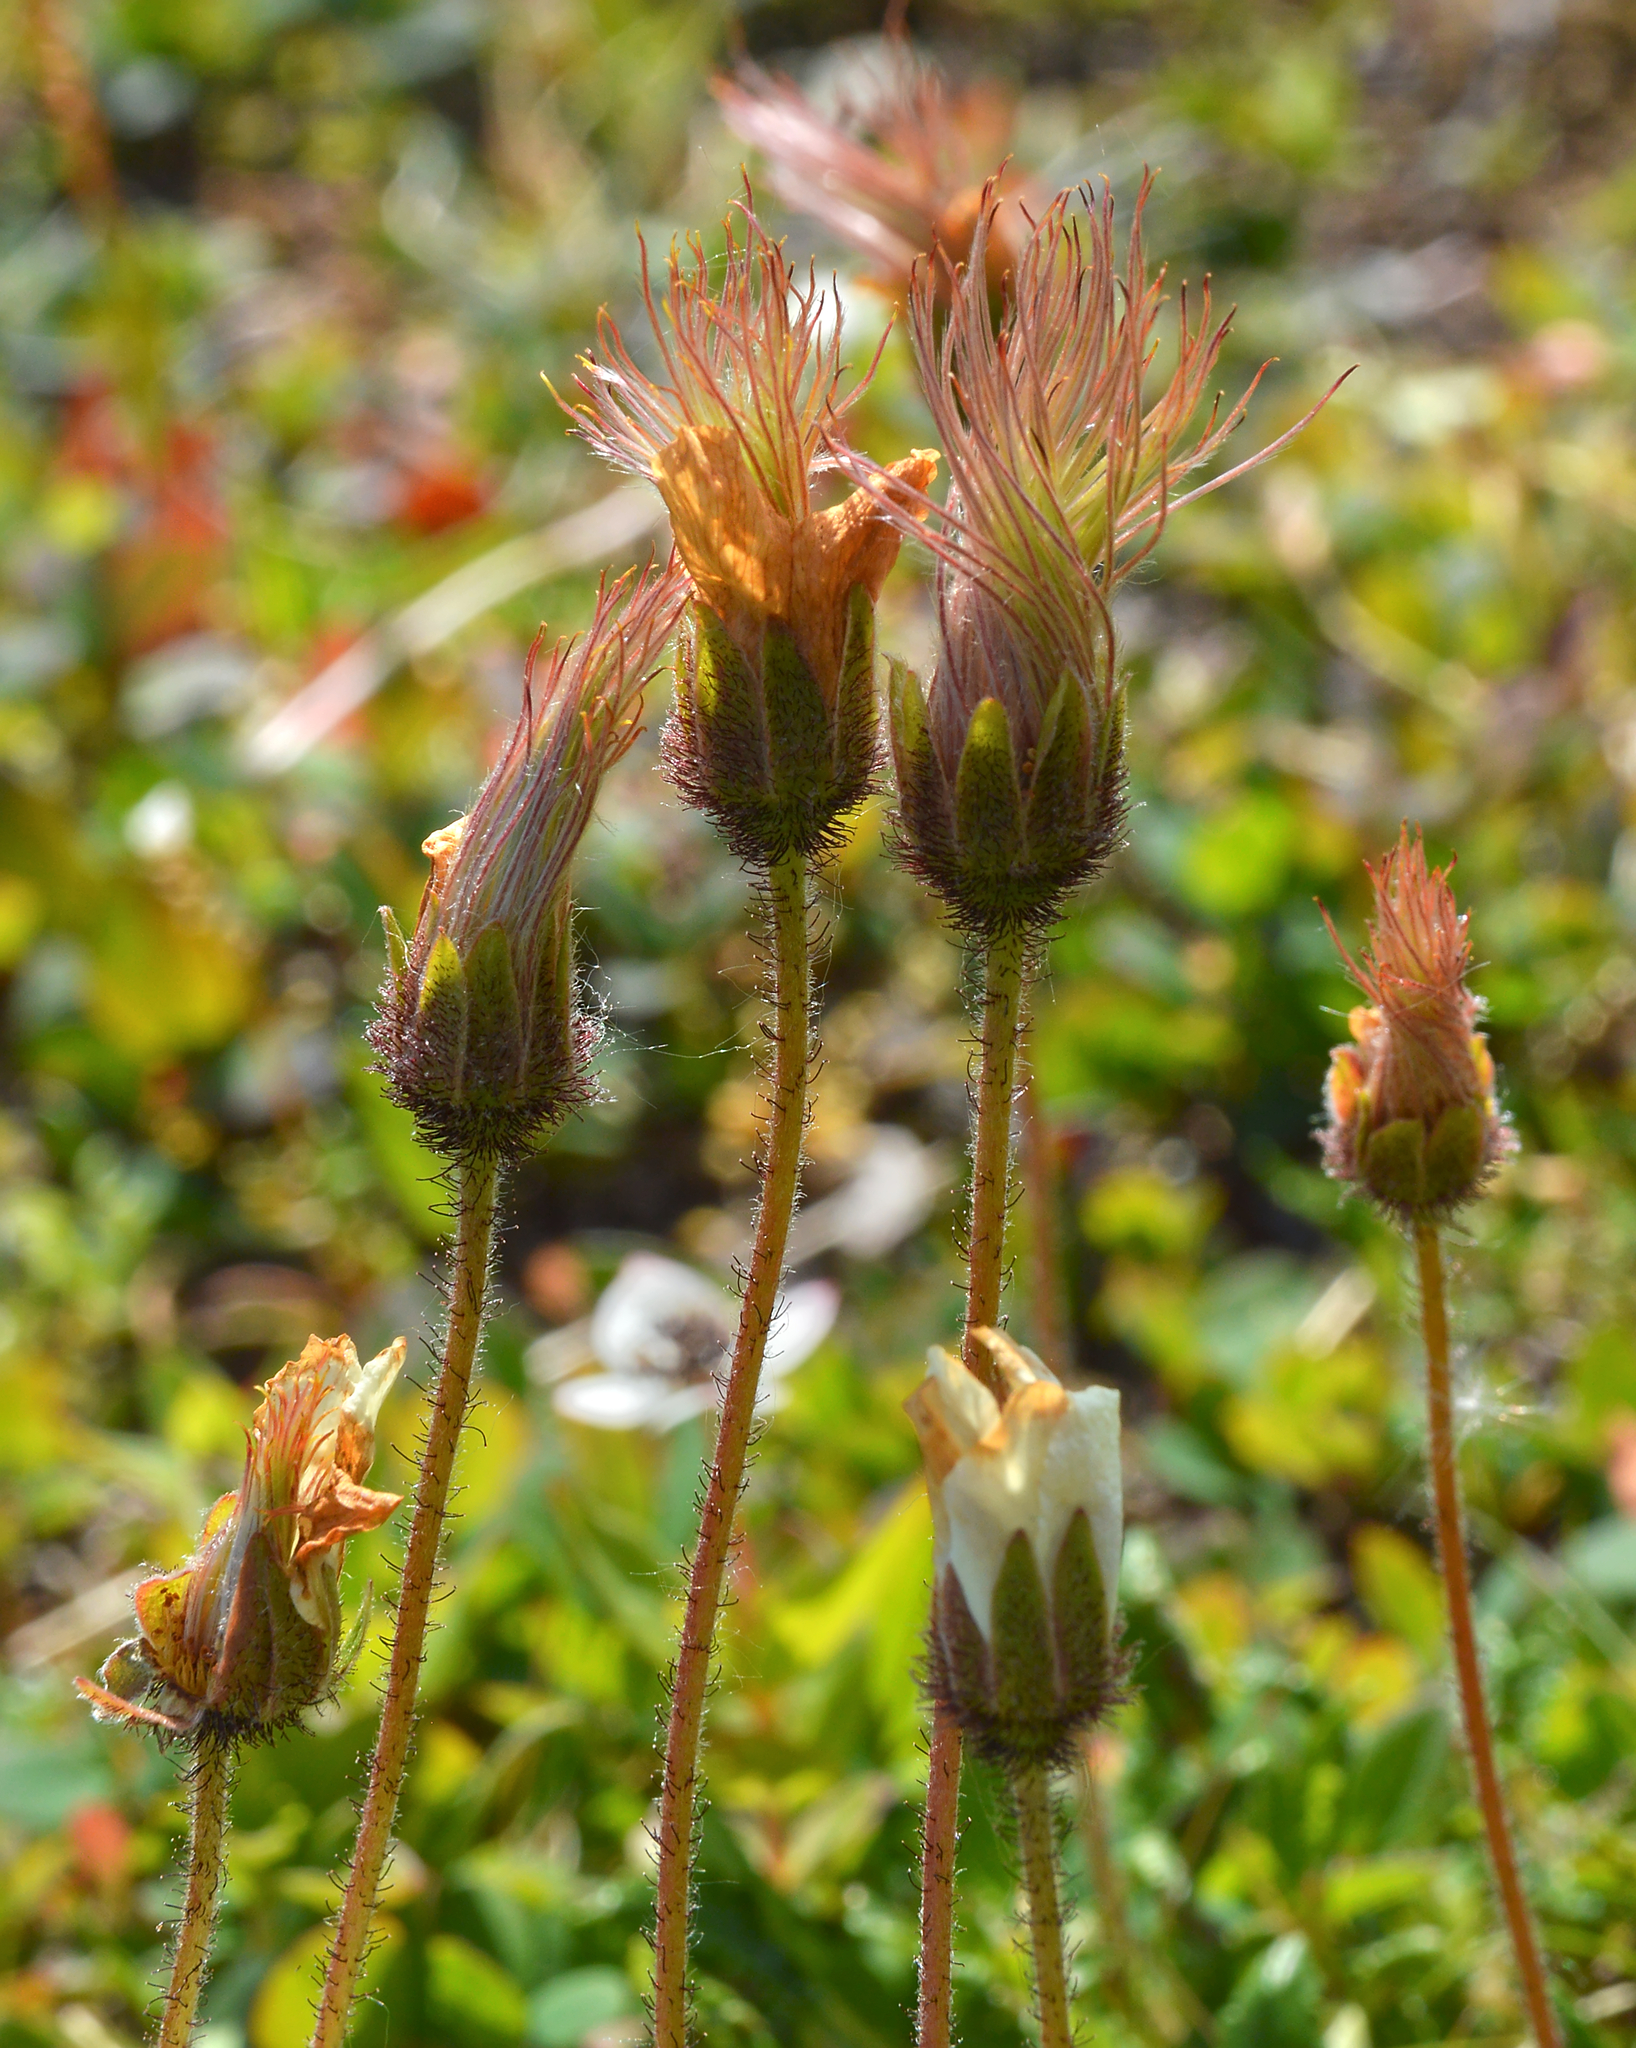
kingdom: Plantae
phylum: Tracheophyta
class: Magnoliopsida
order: Rosales
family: Rosaceae
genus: Dryas
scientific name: Dryas octopetala
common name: Eight-petal mountain-avens
